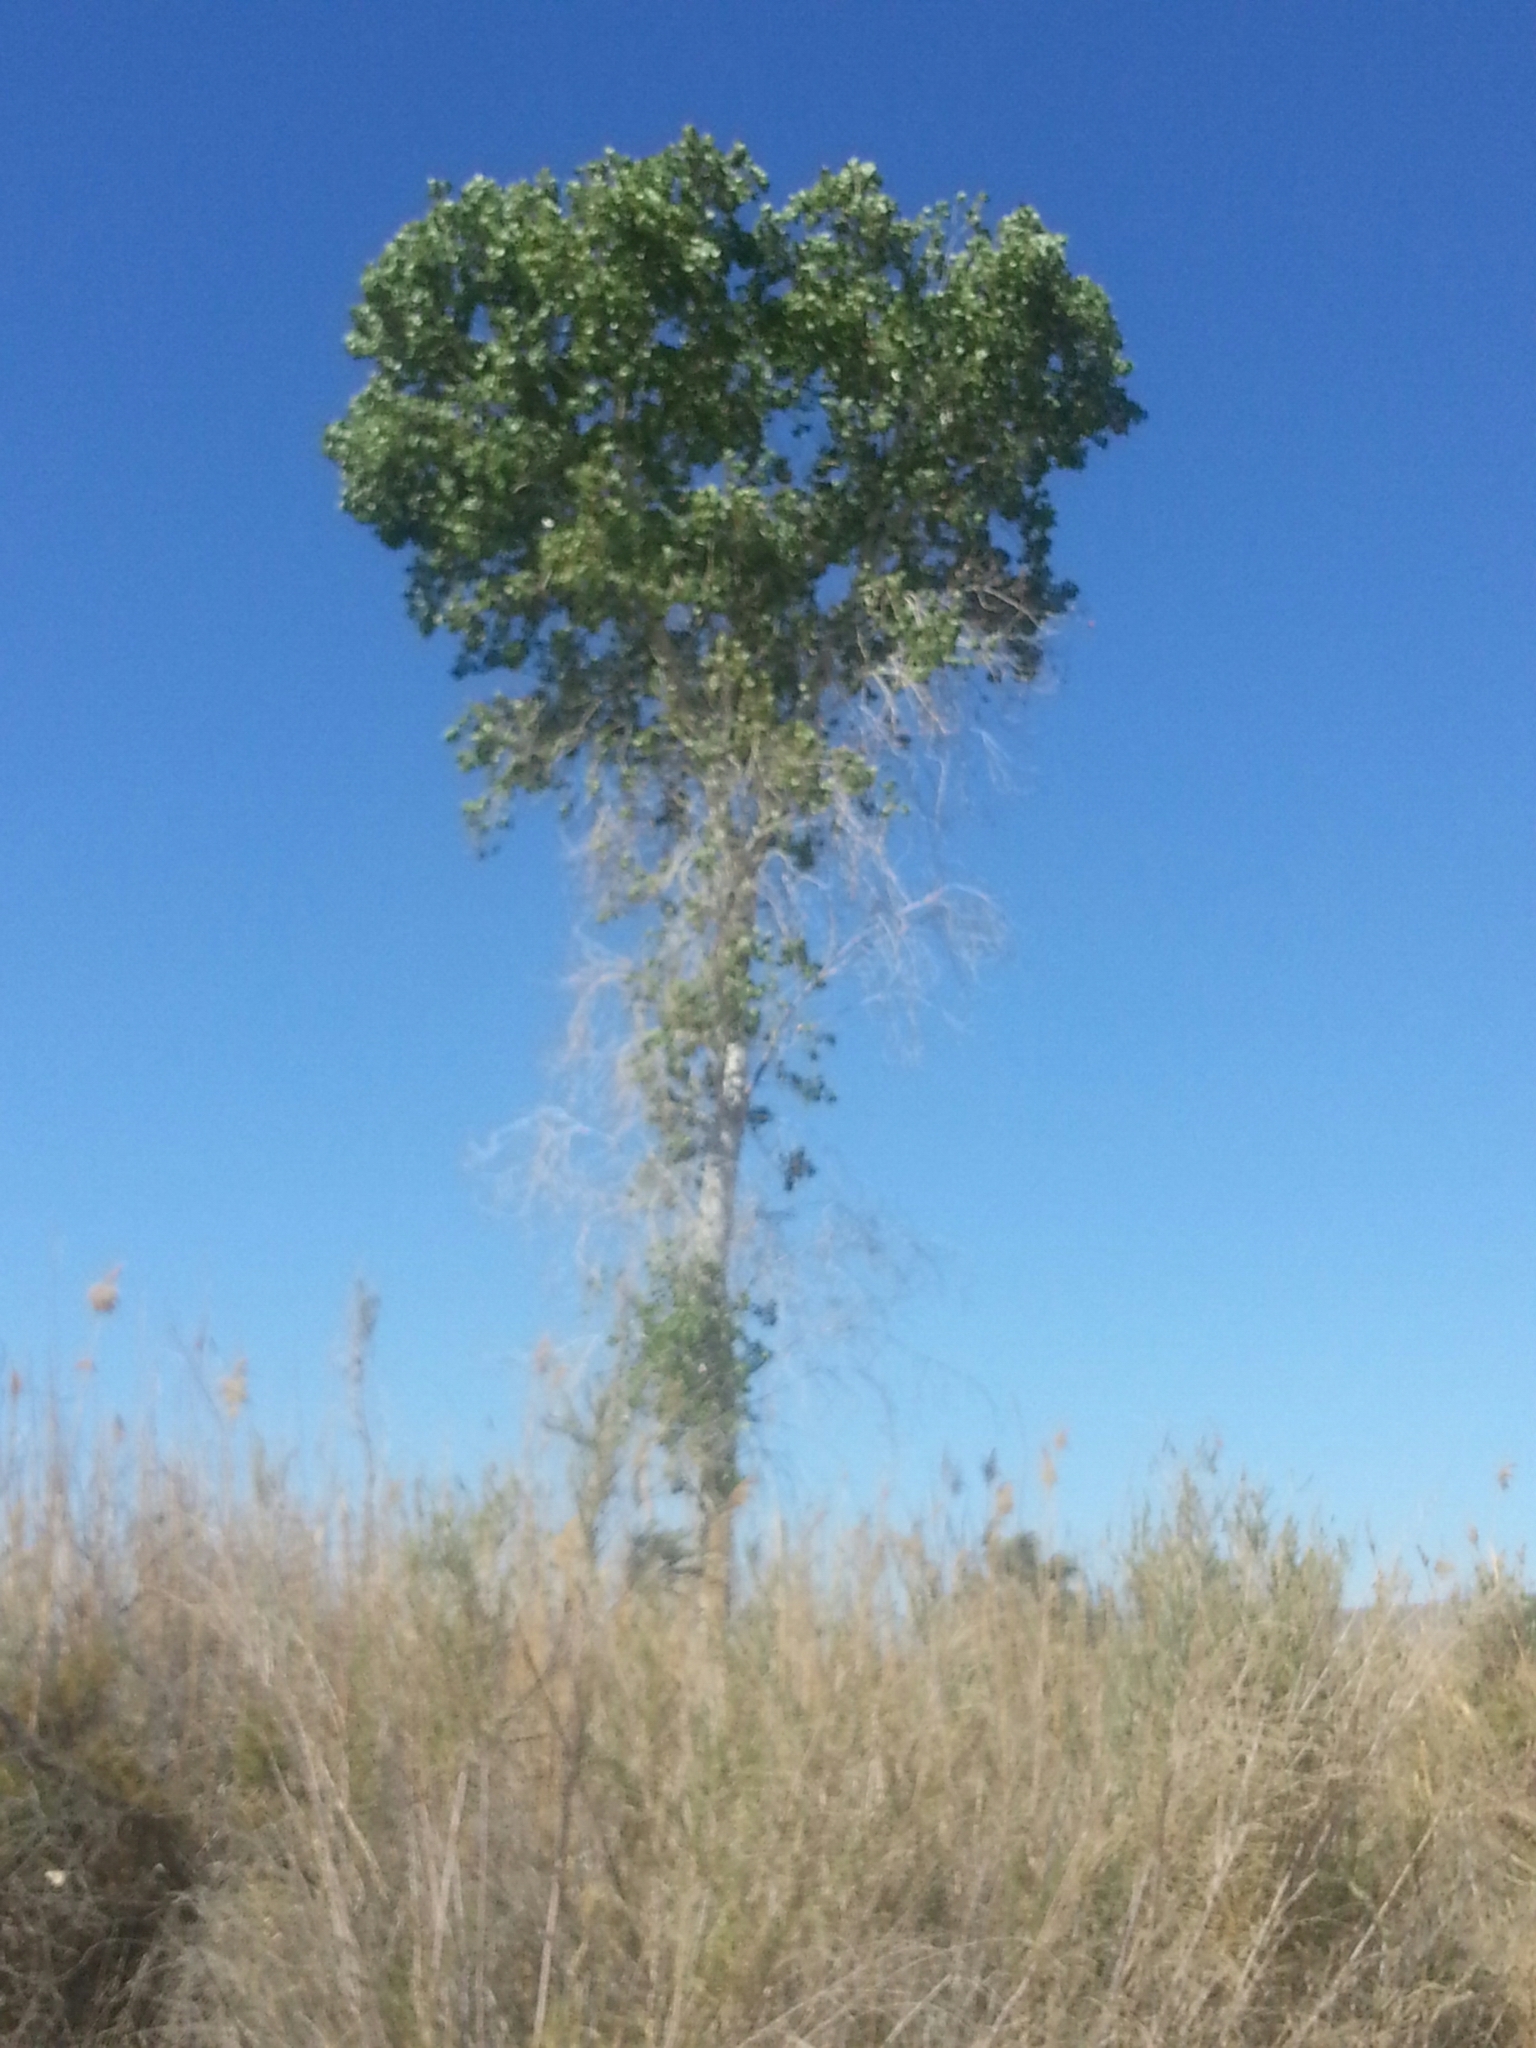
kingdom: Plantae
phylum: Tracheophyta
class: Magnoliopsida
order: Malpighiales
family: Salicaceae
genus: Populus
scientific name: Populus fremontii
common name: Fremont's cottonwood
